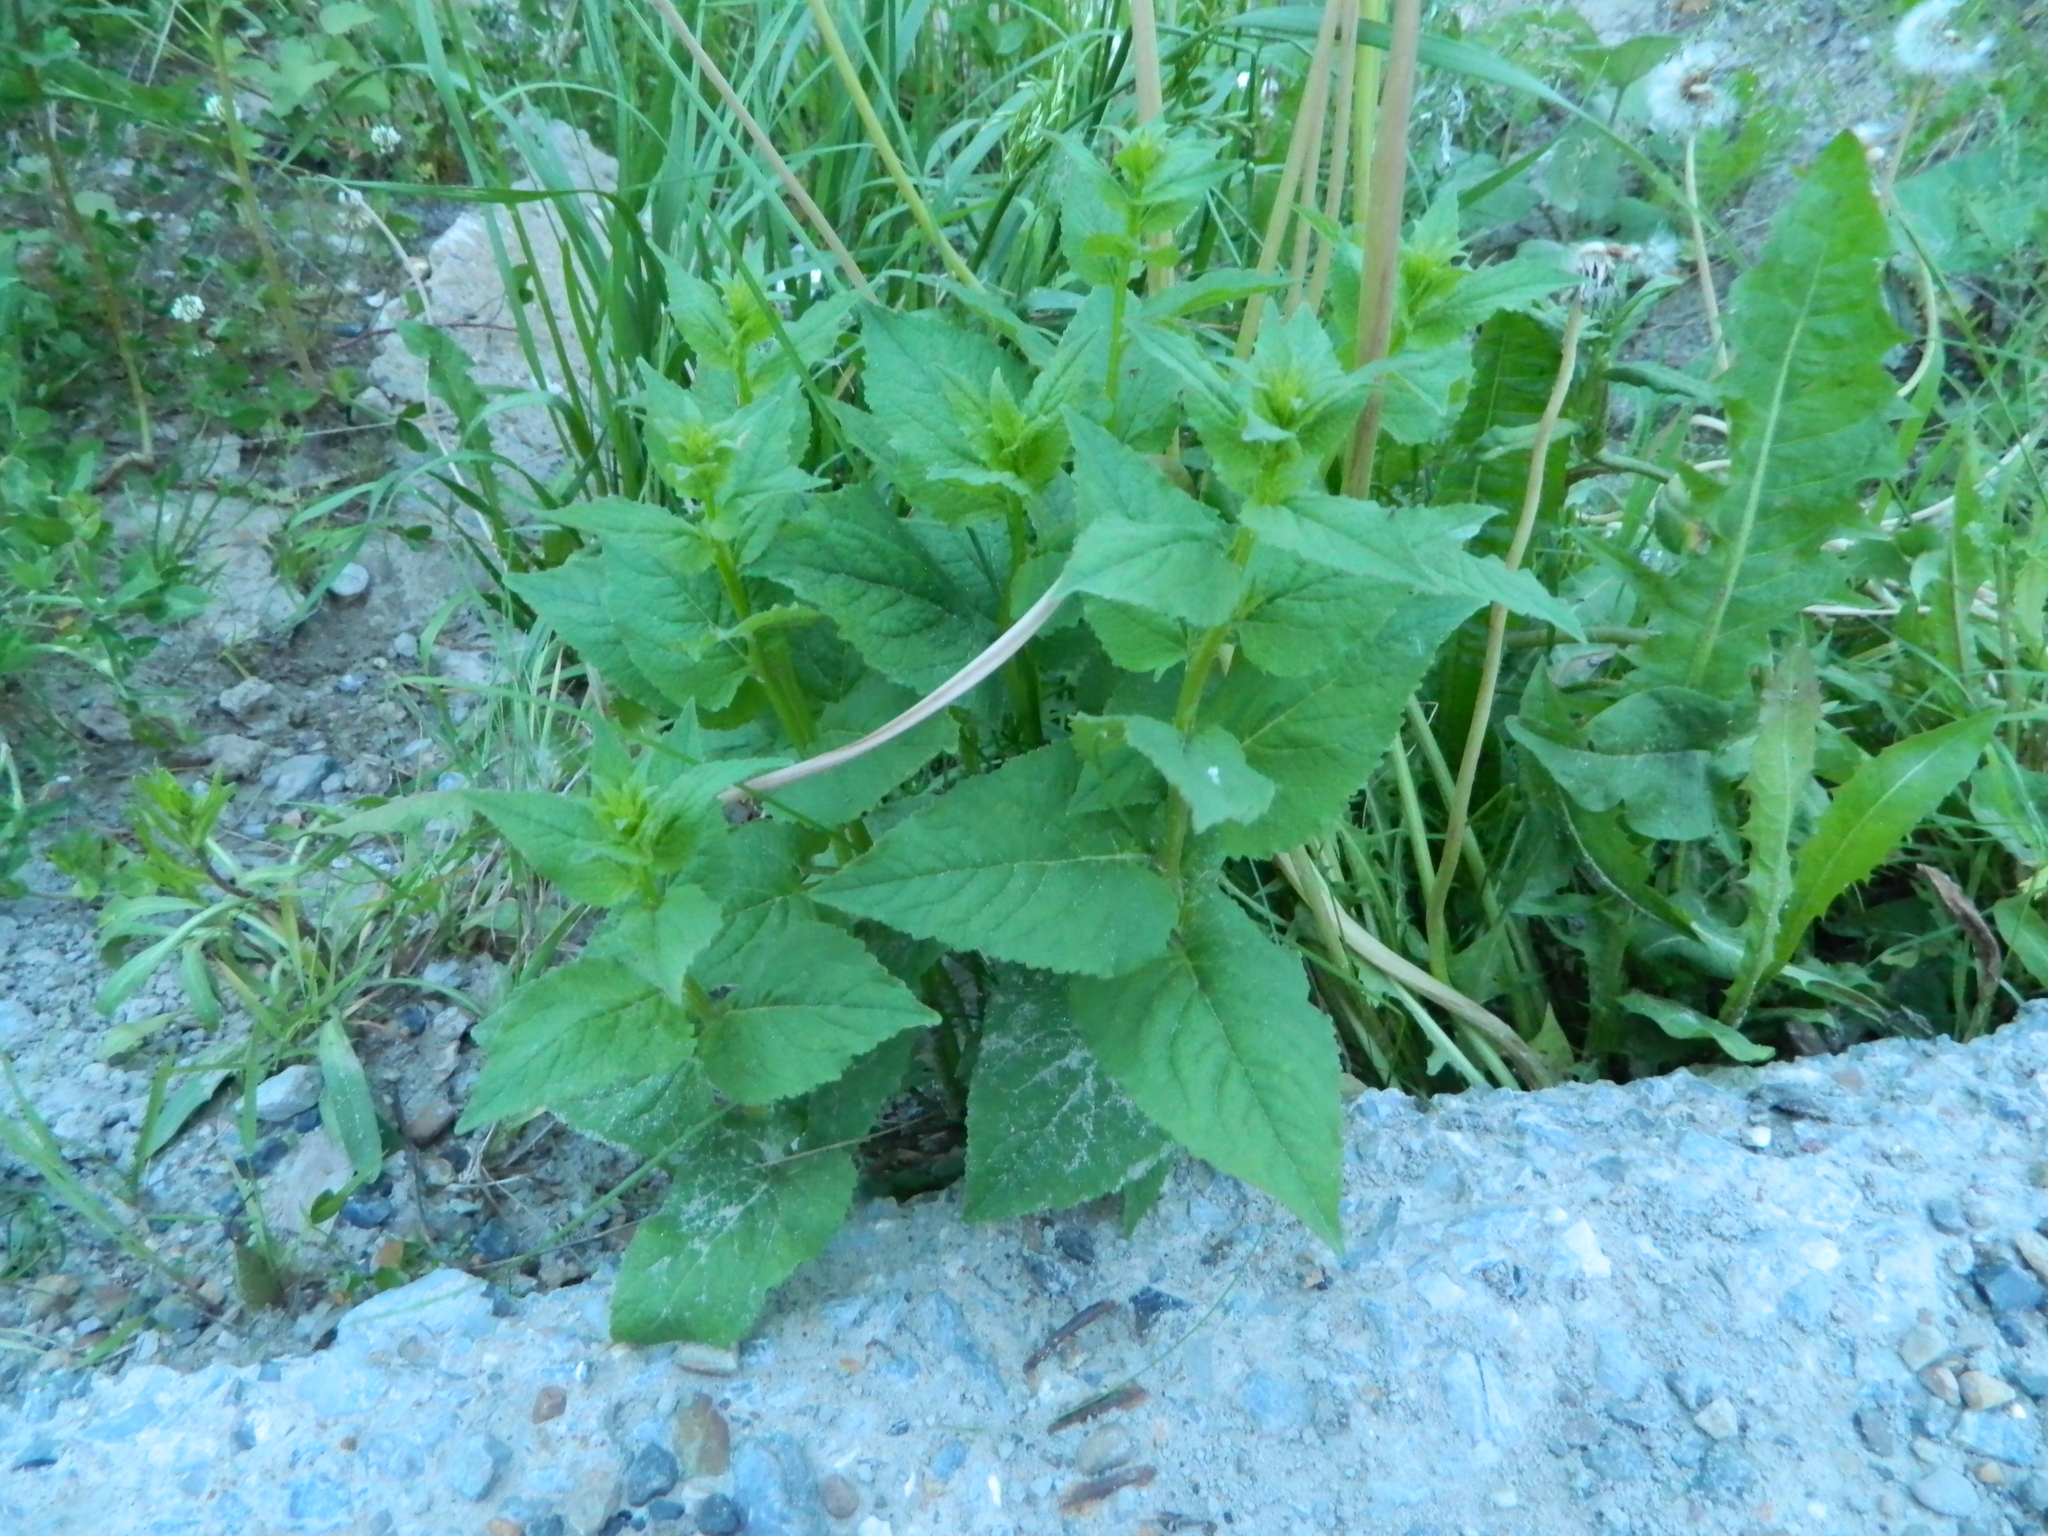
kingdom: Plantae
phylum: Tracheophyta
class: Magnoliopsida
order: Asterales
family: Campanulaceae
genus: Campanula
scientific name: Campanula rapunculoides
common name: Creeping bellflower
